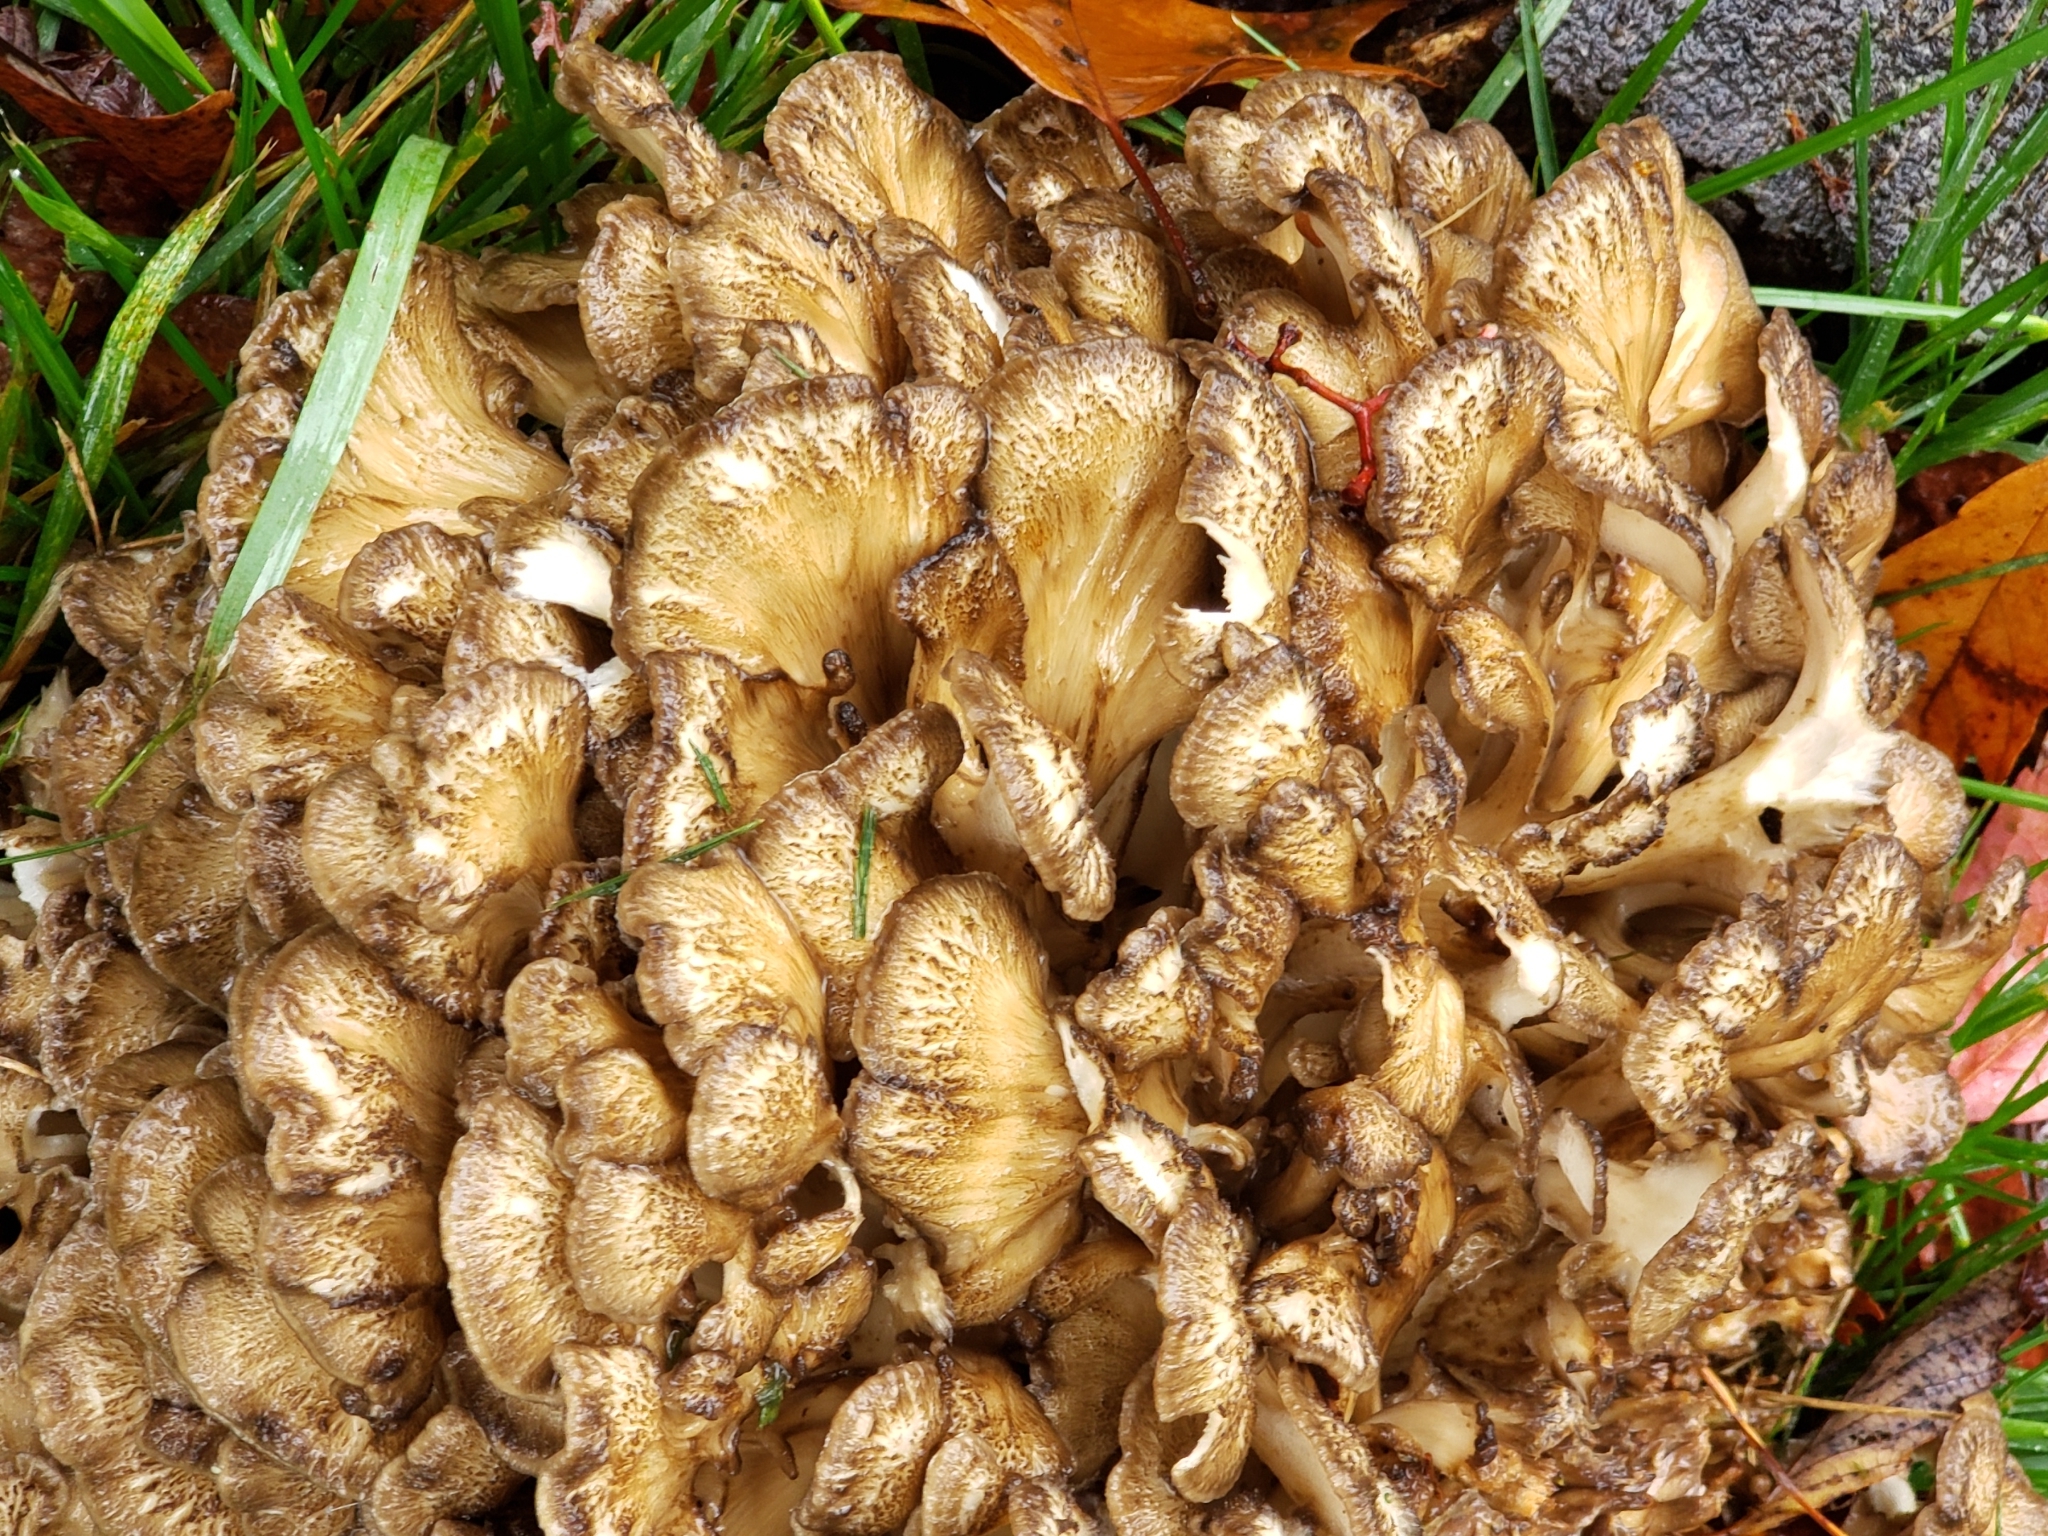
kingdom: Fungi
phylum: Basidiomycota
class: Agaricomycetes
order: Polyporales
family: Grifolaceae
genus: Grifola
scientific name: Grifola frondosa
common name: Hen of the woods
